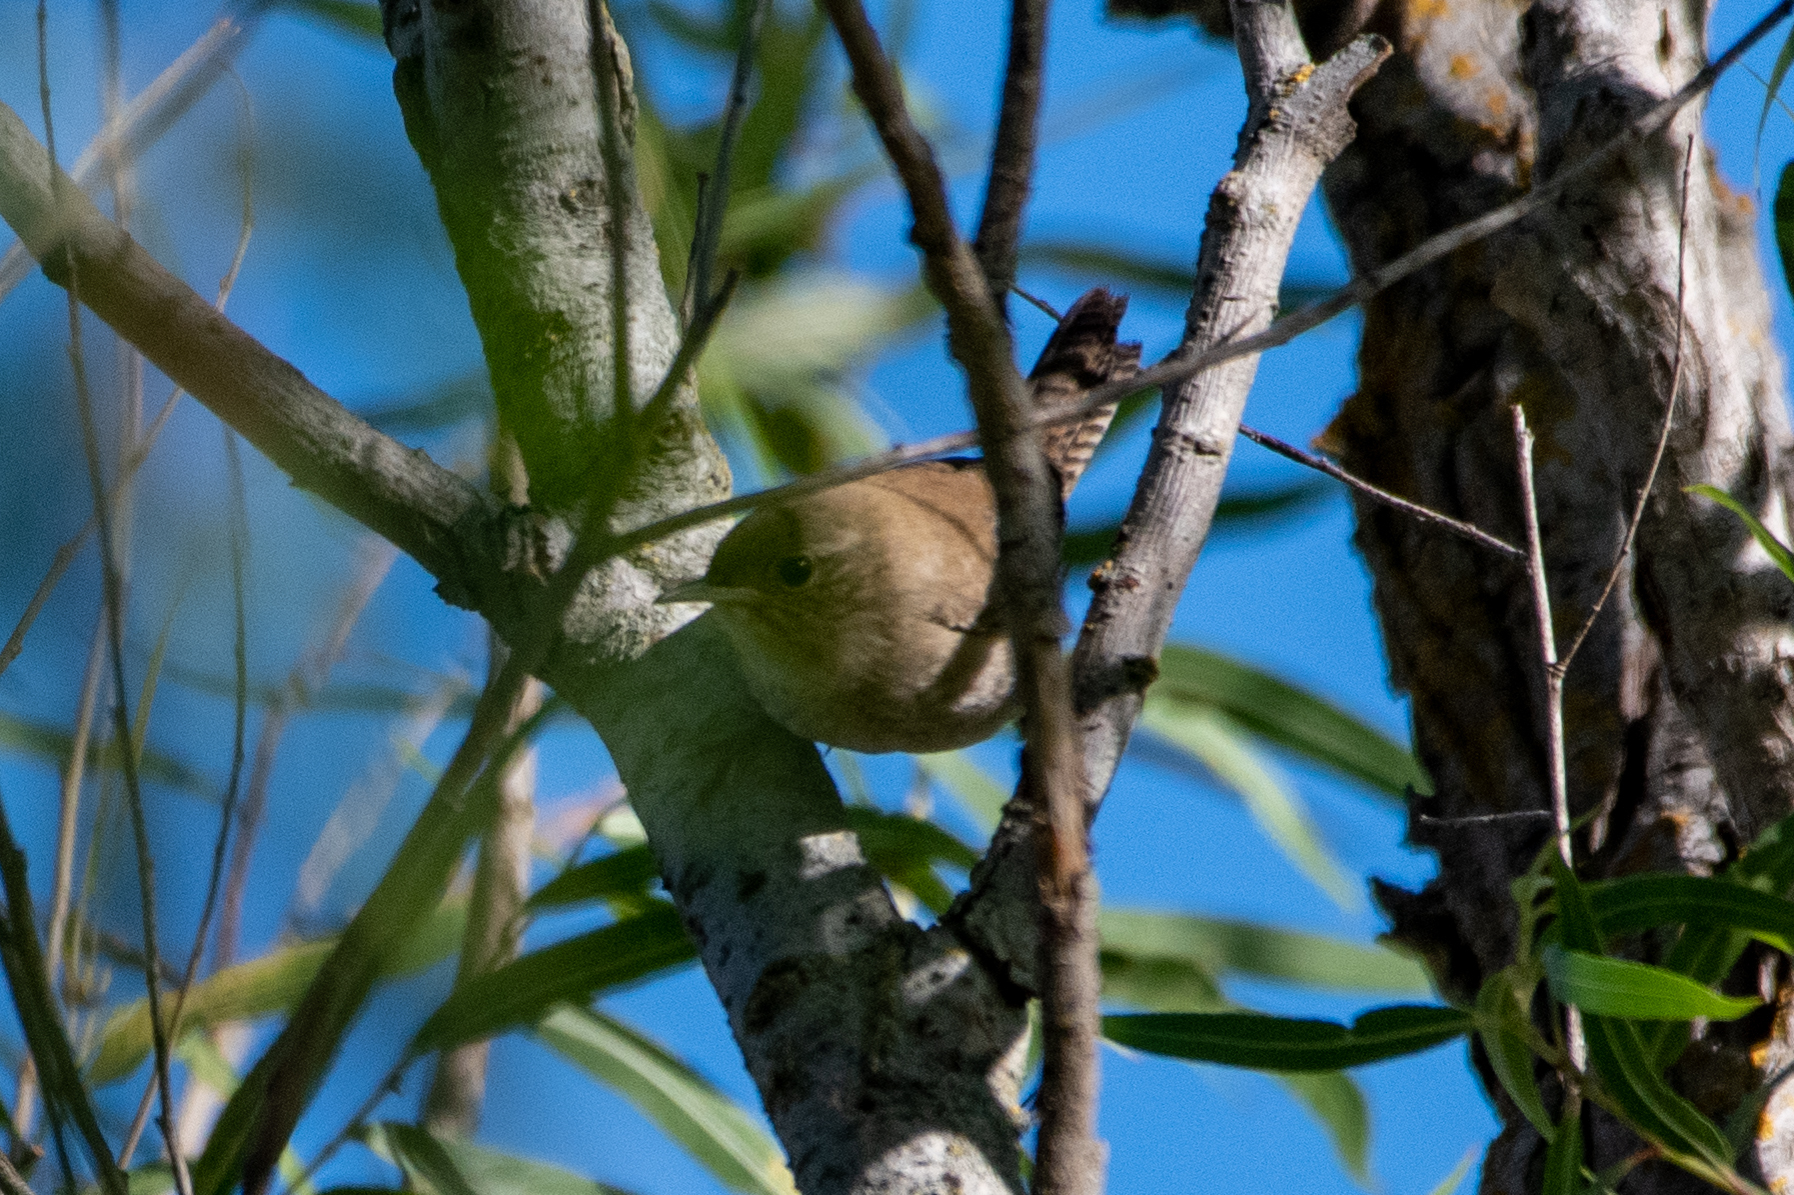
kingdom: Animalia
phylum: Chordata
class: Aves
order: Passeriformes
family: Troglodytidae
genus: Troglodytes
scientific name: Troglodytes aedon
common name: House wren
